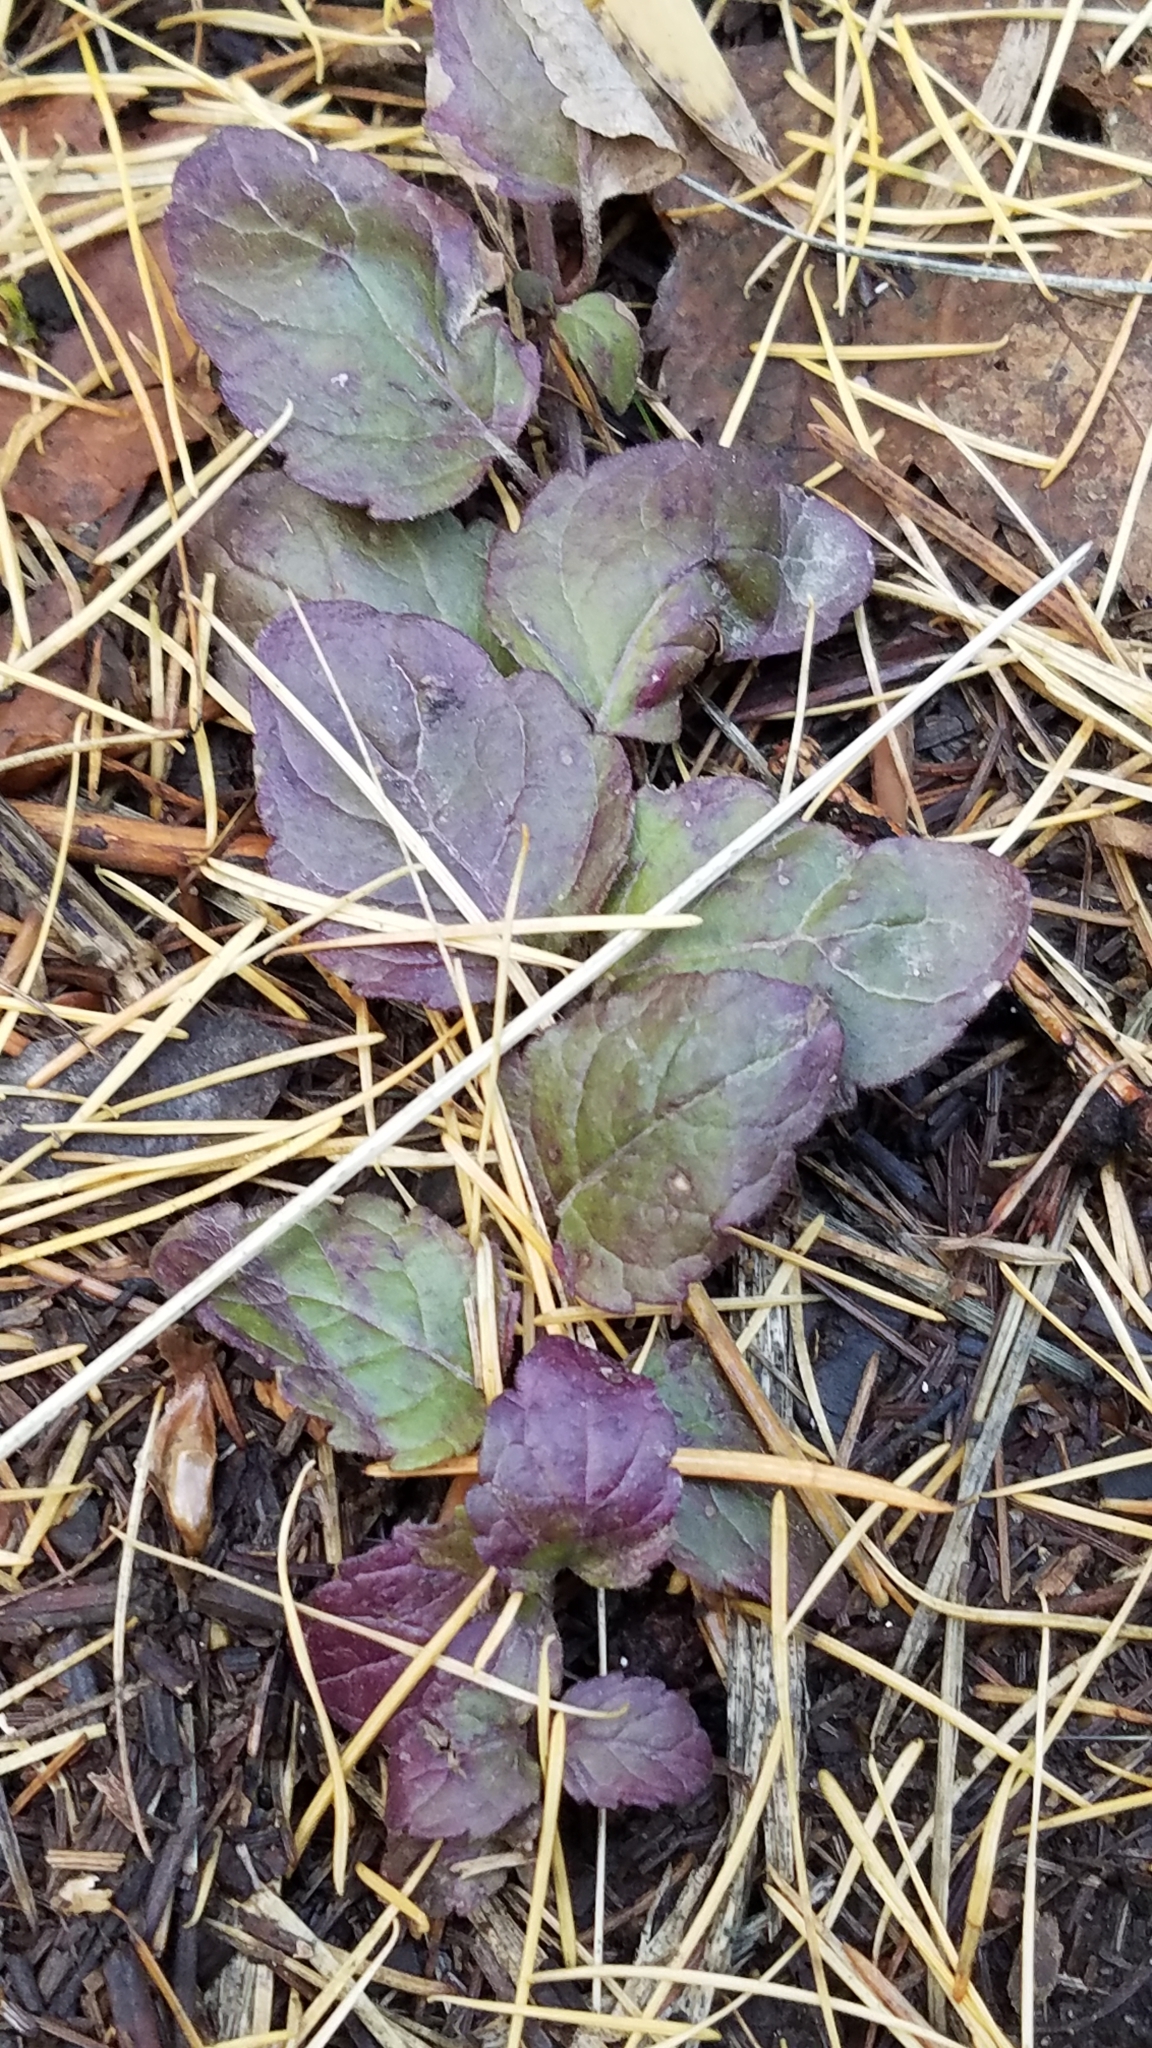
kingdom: Plantae
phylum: Tracheophyta
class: Magnoliopsida
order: Lamiales
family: Lamiaceae
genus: Micromeria
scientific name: Micromeria douglasii
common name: Yerba buena
